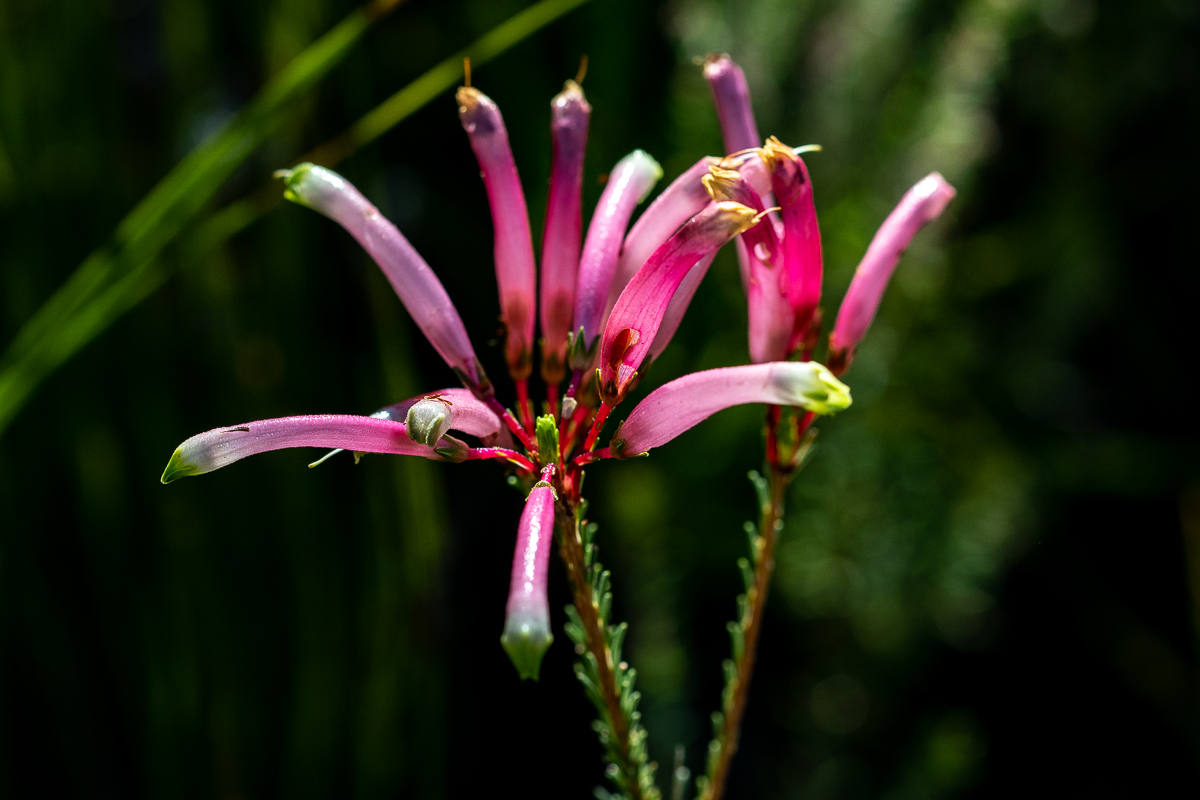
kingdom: Plantae
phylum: Tracheophyta
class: Magnoliopsida
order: Ericales
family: Ericaceae
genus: Erica
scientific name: Erica fascicularis
